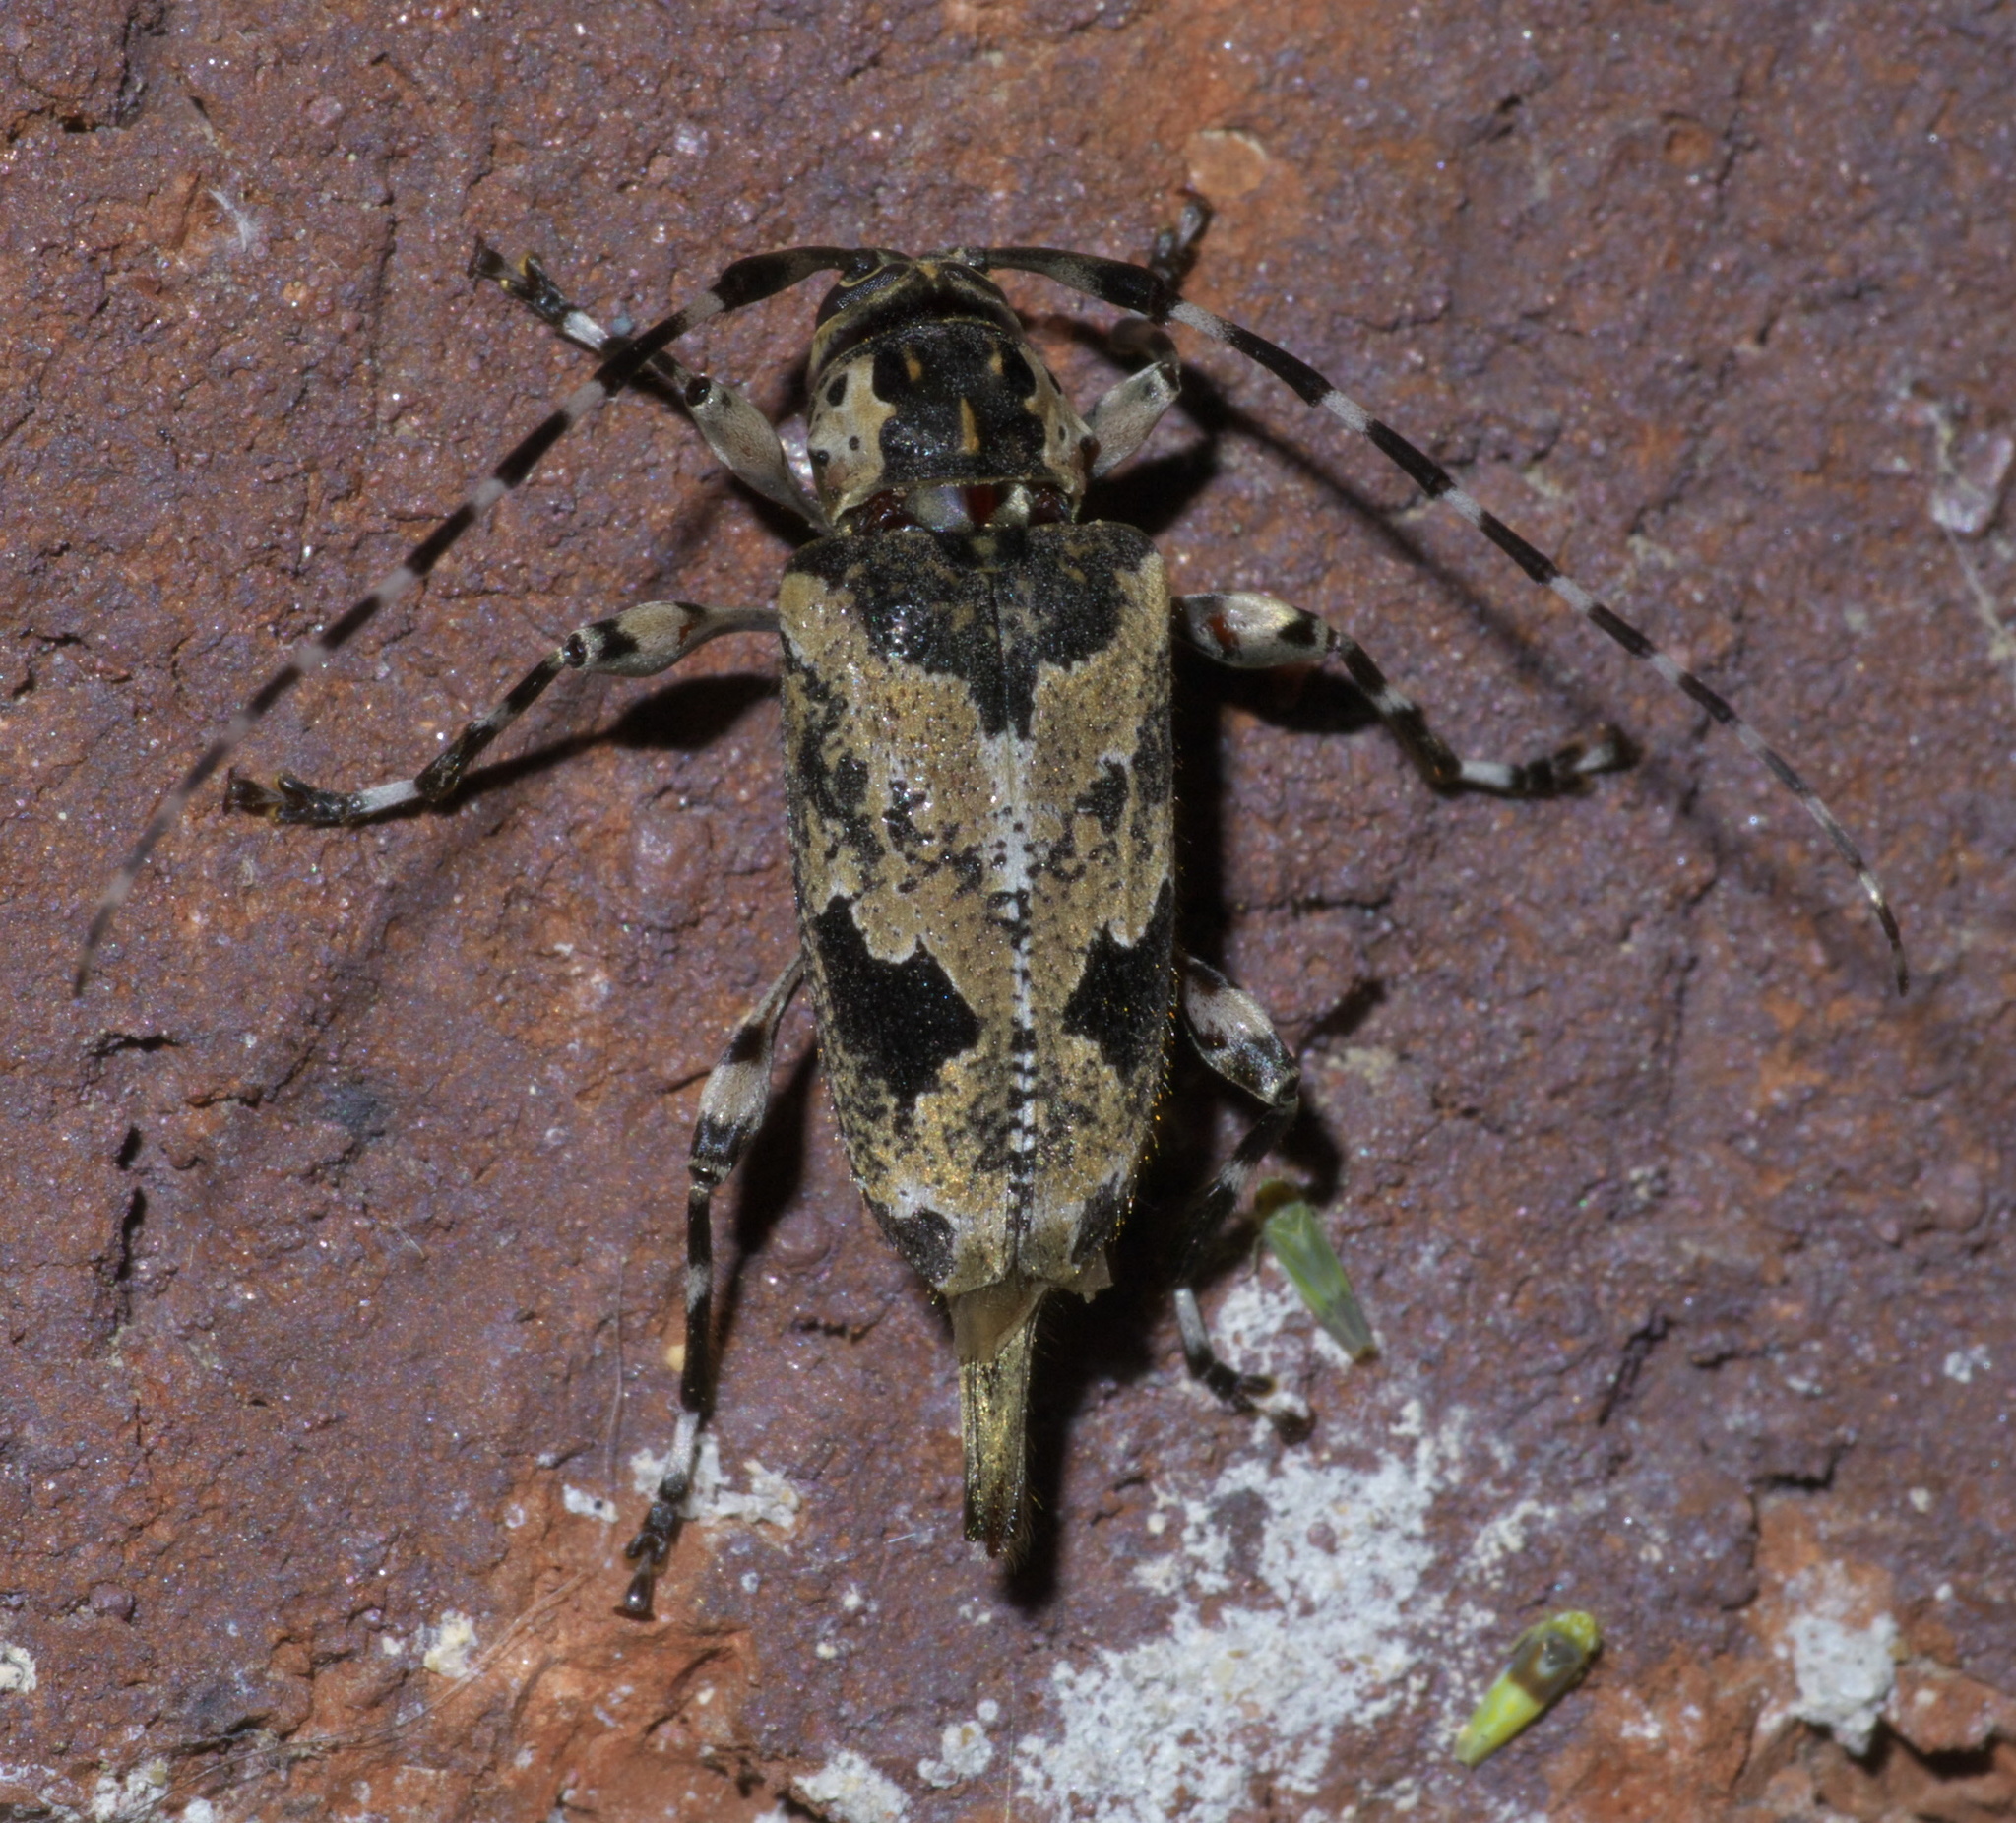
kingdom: Animalia
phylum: Arthropoda
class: Insecta
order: Coleoptera
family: Cerambycidae
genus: Graphisurus
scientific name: Graphisurus triangulifer
